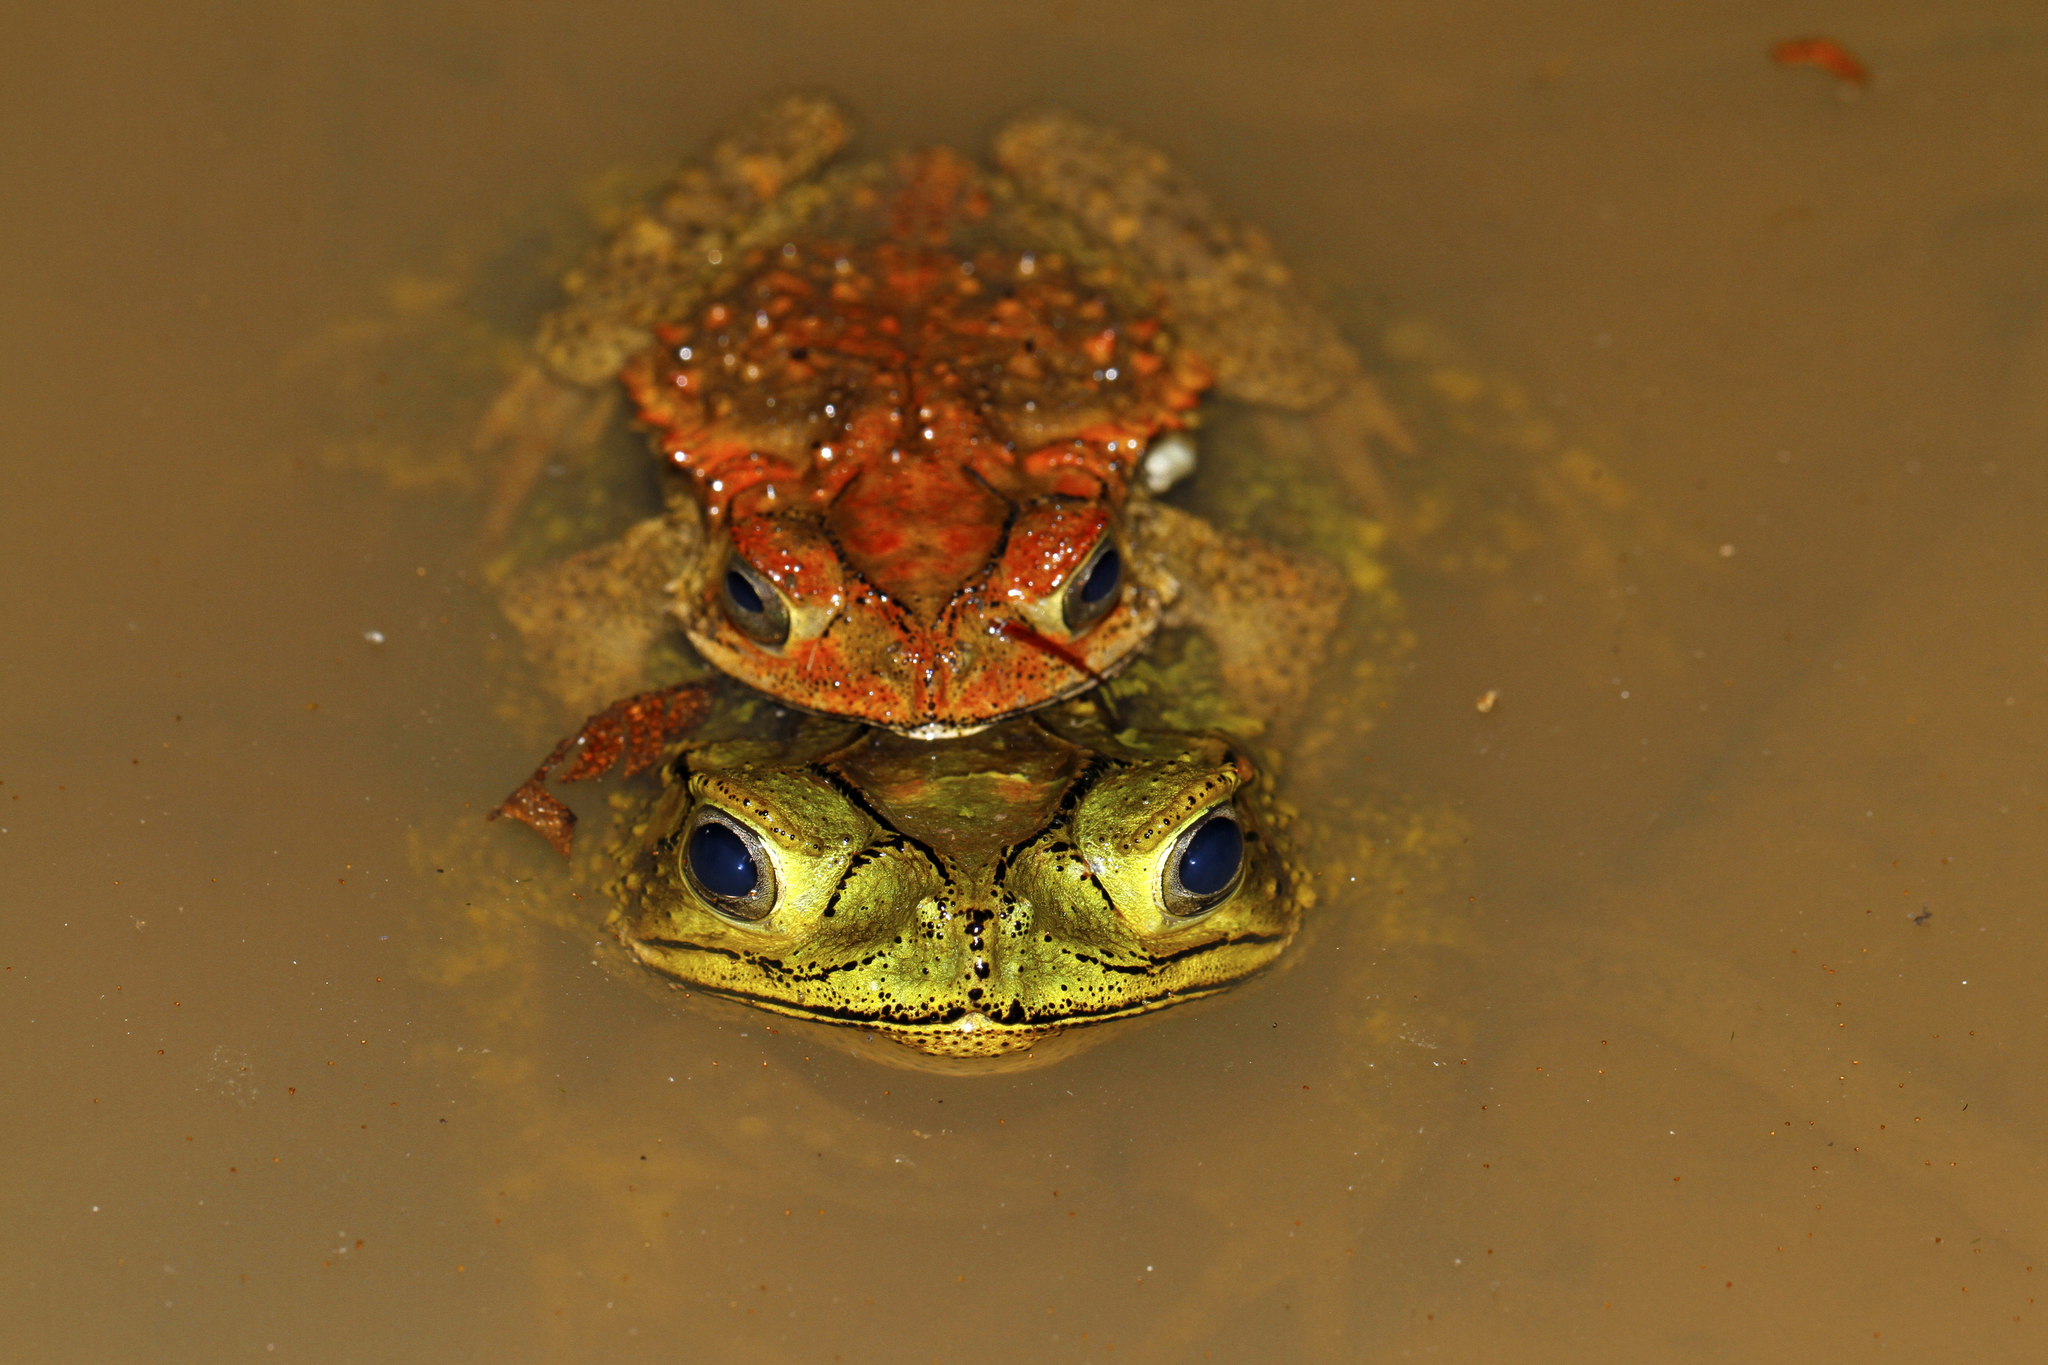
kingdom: Animalia
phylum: Chordata
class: Amphibia
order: Anura
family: Bufonidae
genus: Incilius
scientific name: Incilius coniferus
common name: Evergreen toad
